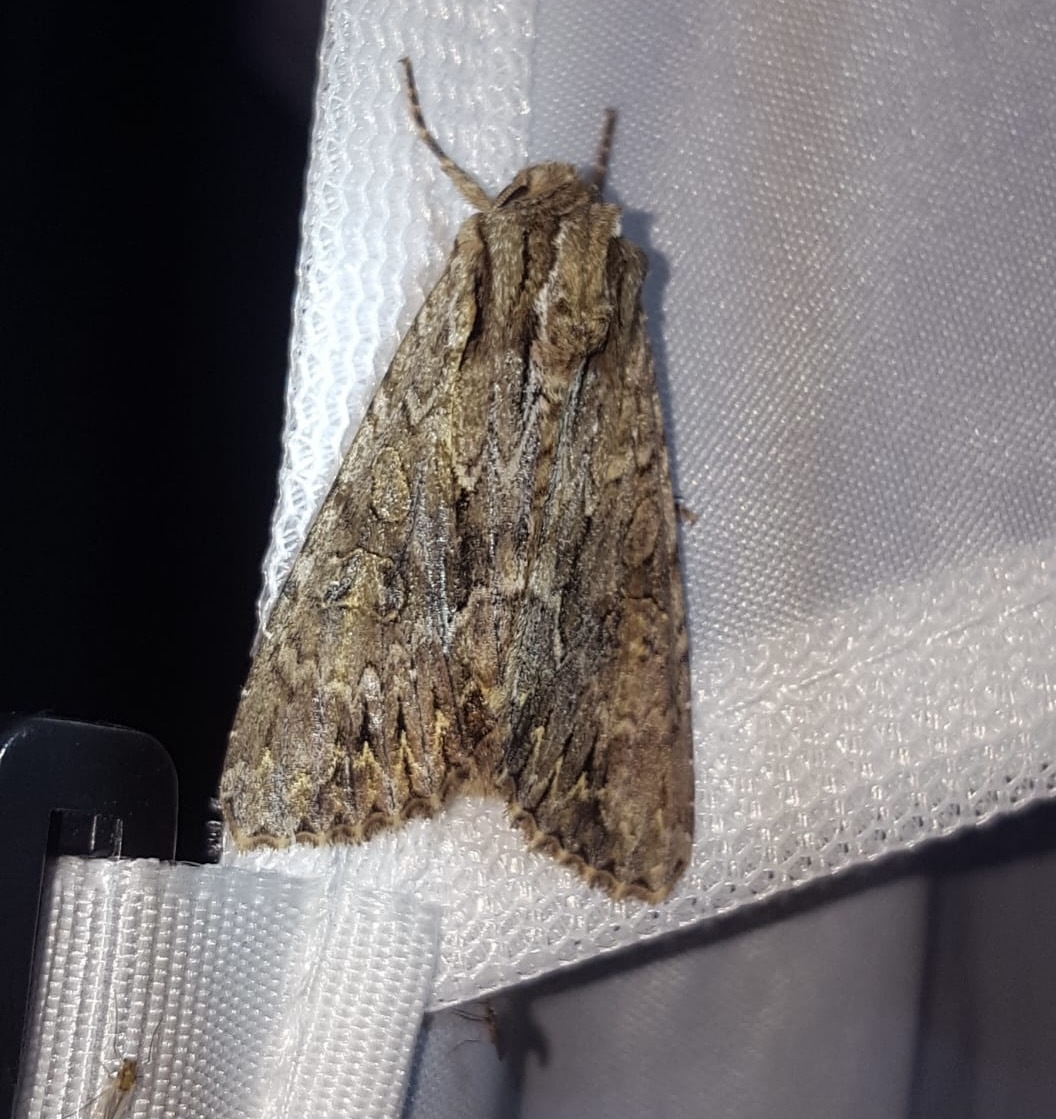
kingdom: Animalia
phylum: Arthropoda
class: Insecta
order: Lepidoptera
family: Noctuidae
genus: Apamea
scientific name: Apamea monoglypha
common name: Dark arches
